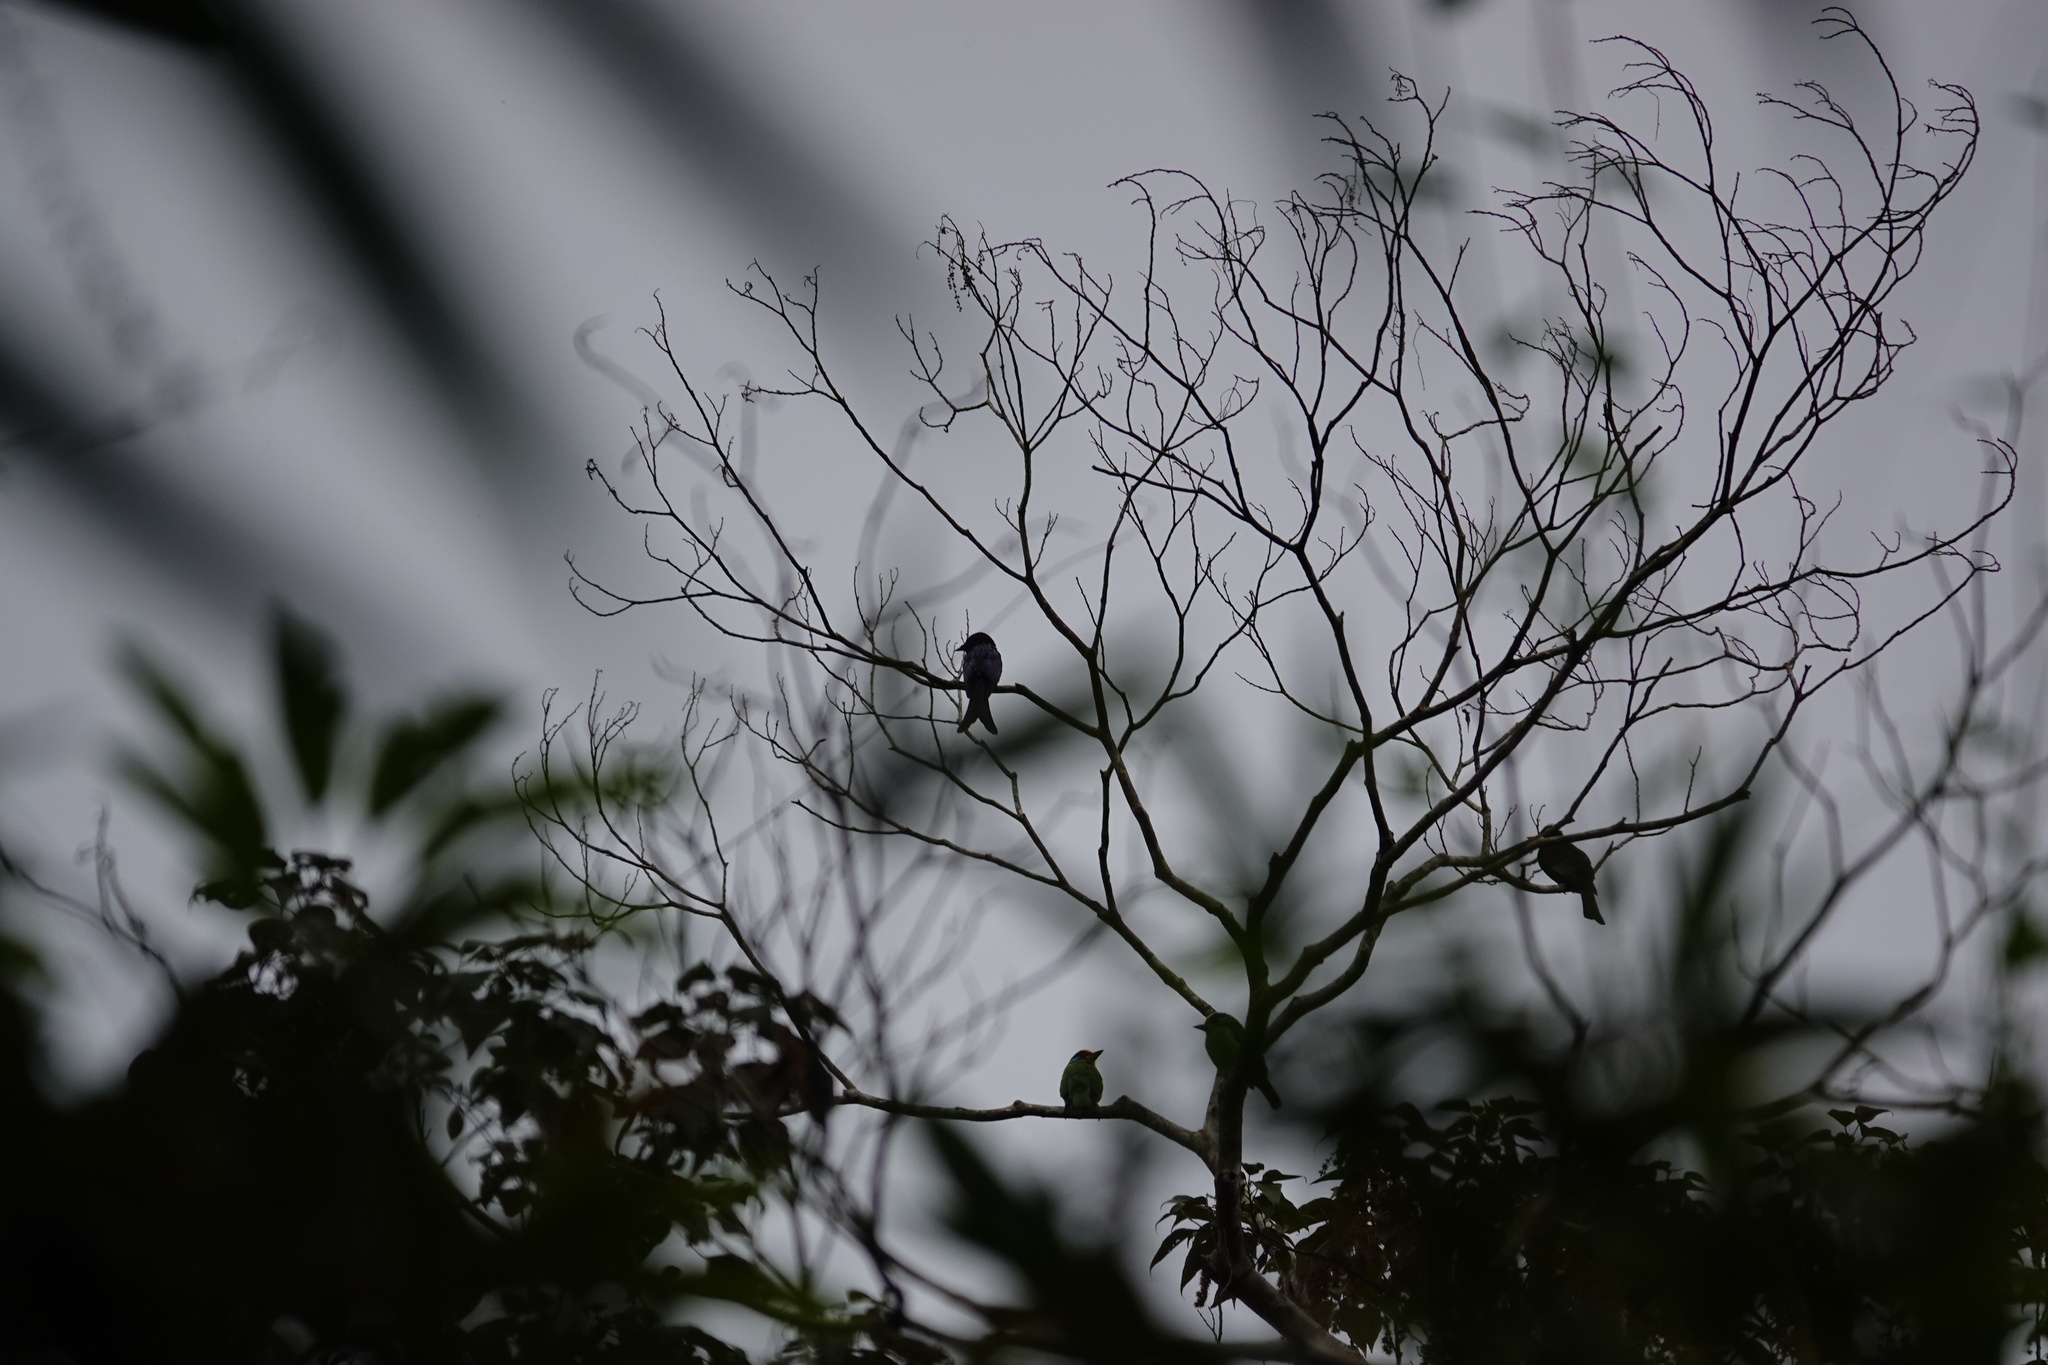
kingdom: Animalia
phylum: Chordata
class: Aves
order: Passeriformes
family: Dicruridae
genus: Dicrurus
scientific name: Dicrurus aeneus
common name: Bronzed drongo
